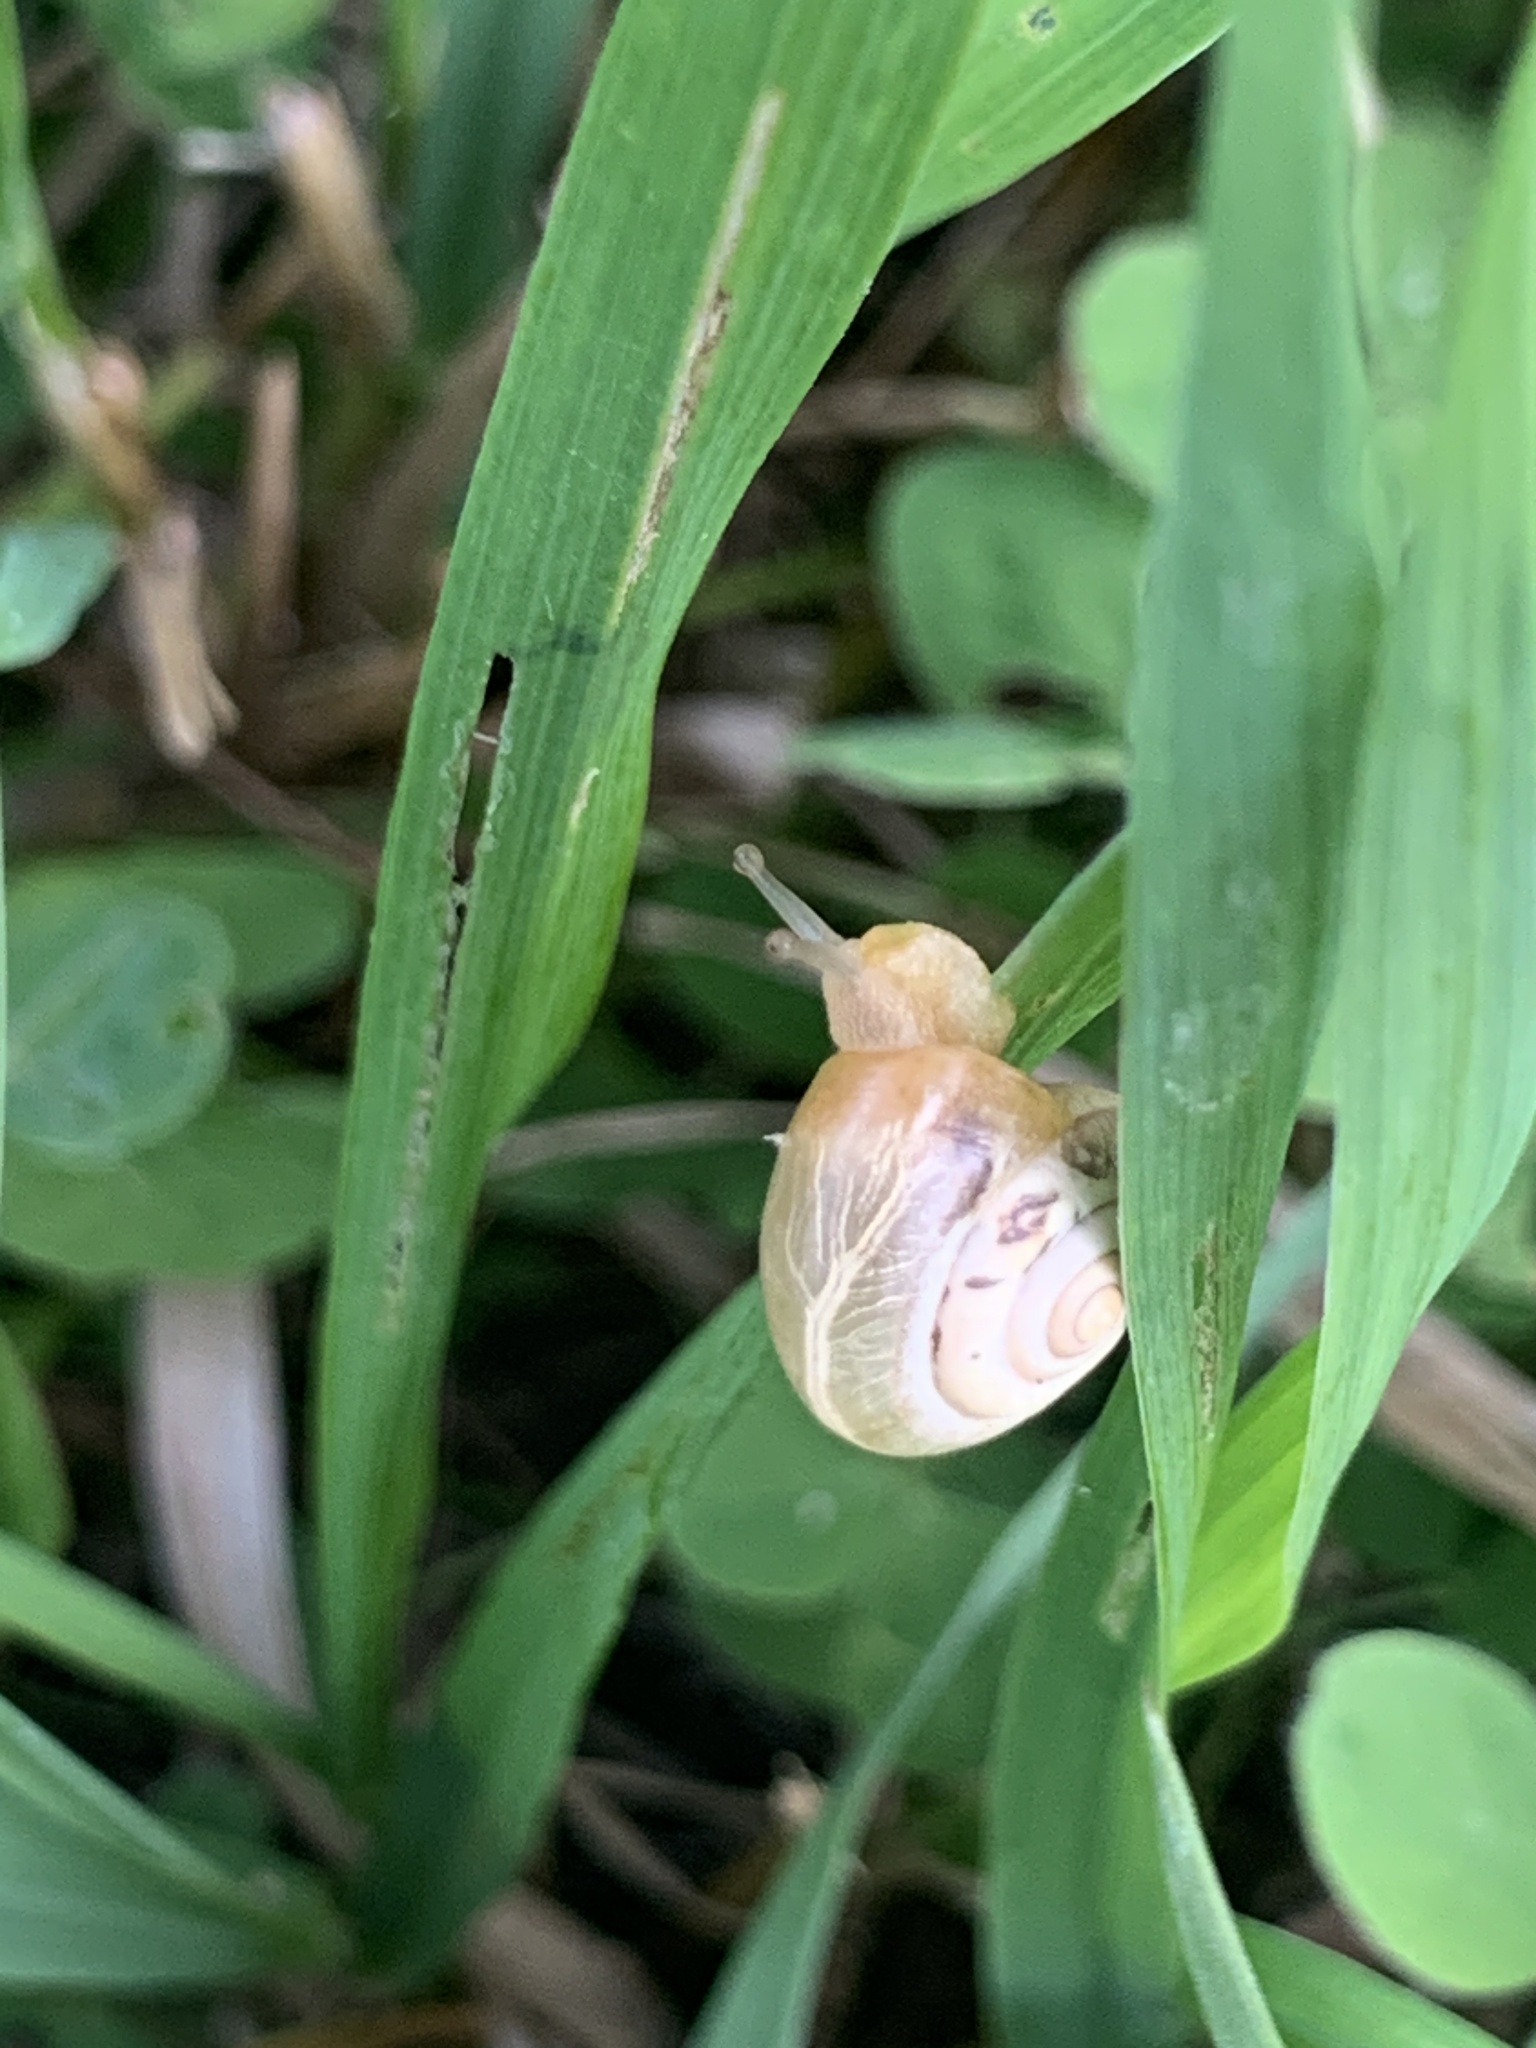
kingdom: Animalia
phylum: Mollusca
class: Gastropoda
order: Stylommatophora
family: Hygromiidae
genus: Monacha
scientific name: Monacha cartusiana
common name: Carthusian snail
